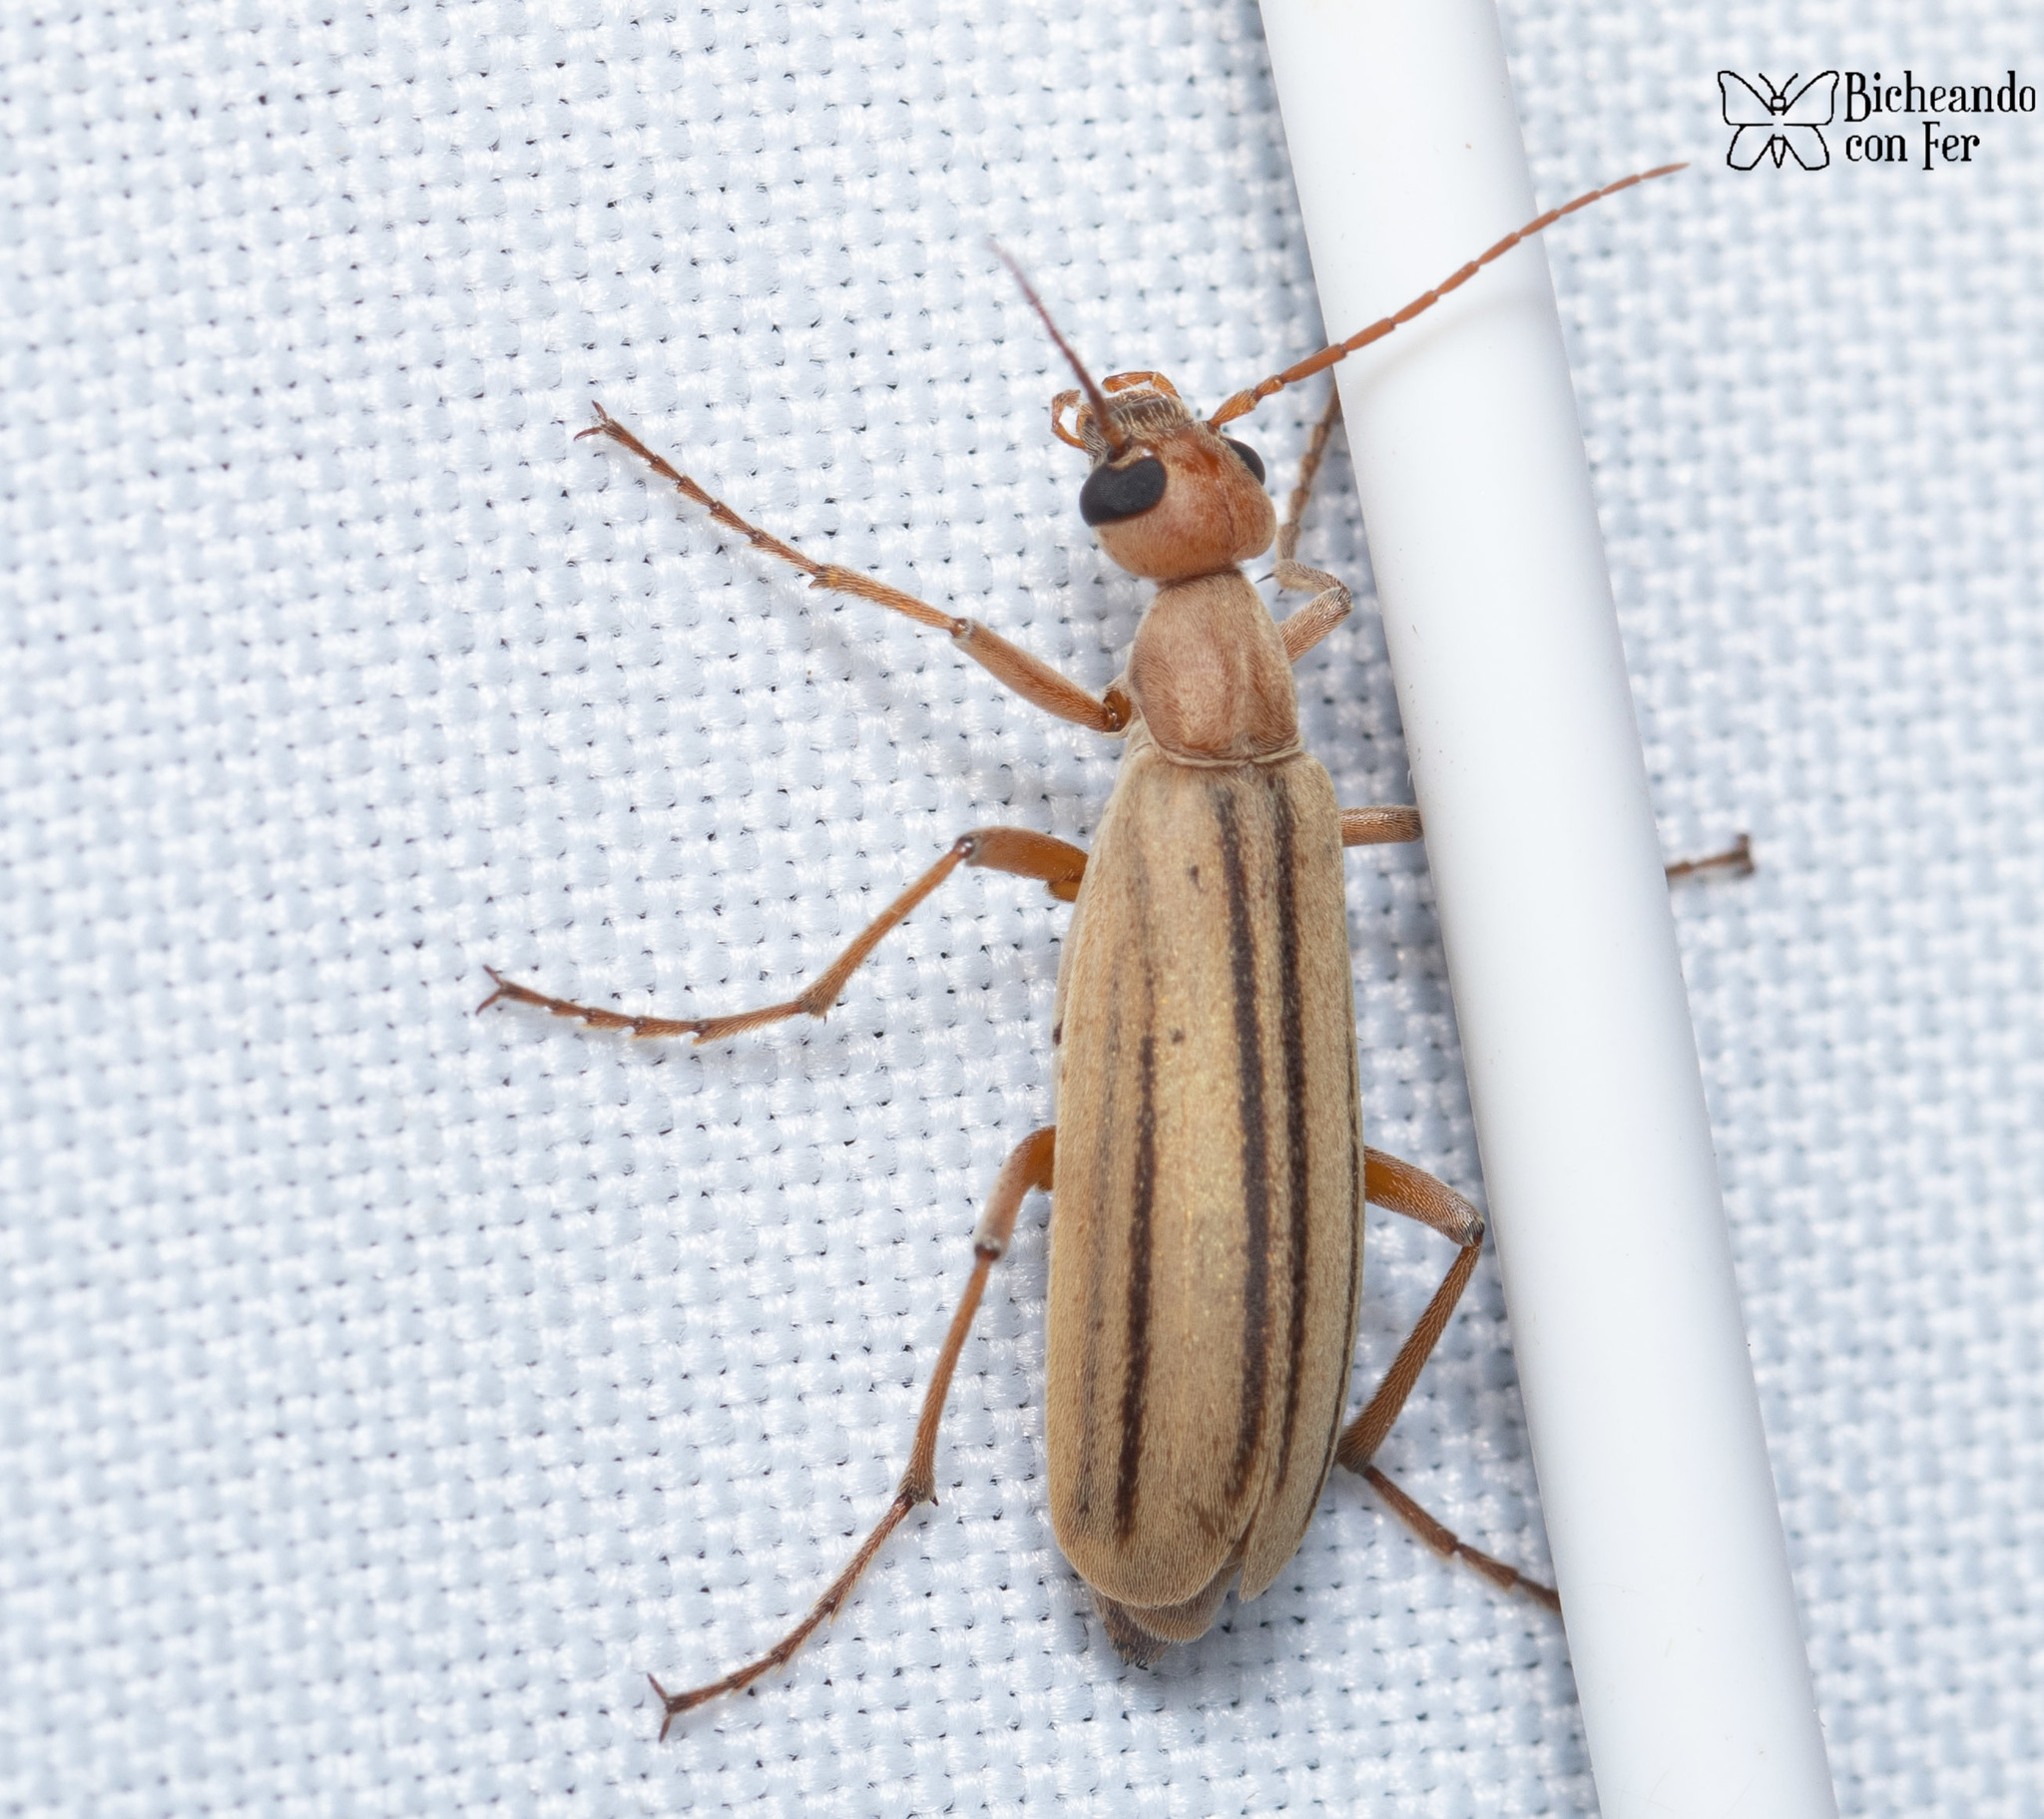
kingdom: Animalia
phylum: Arthropoda
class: Insecta
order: Coleoptera
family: Meloidae
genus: Epicauta
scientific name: Epicauta abadona
